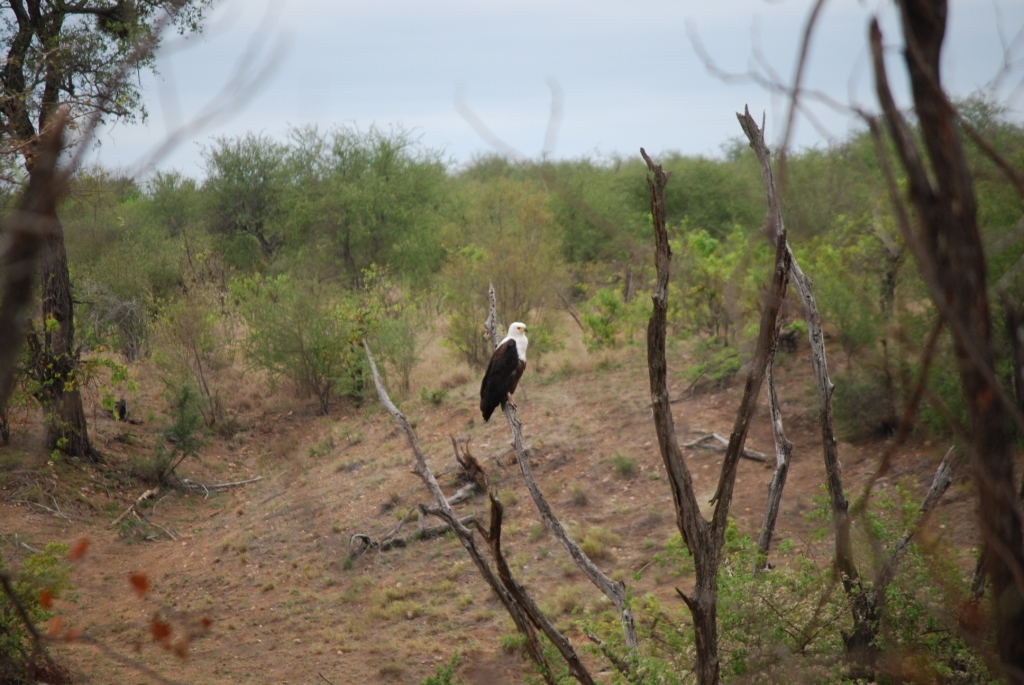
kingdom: Animalia
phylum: Chordata
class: Aves
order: Accipitriformes
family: Accipitridae
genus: Haliaeetus
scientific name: Haliaeetus vocifer
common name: African fish eagle
